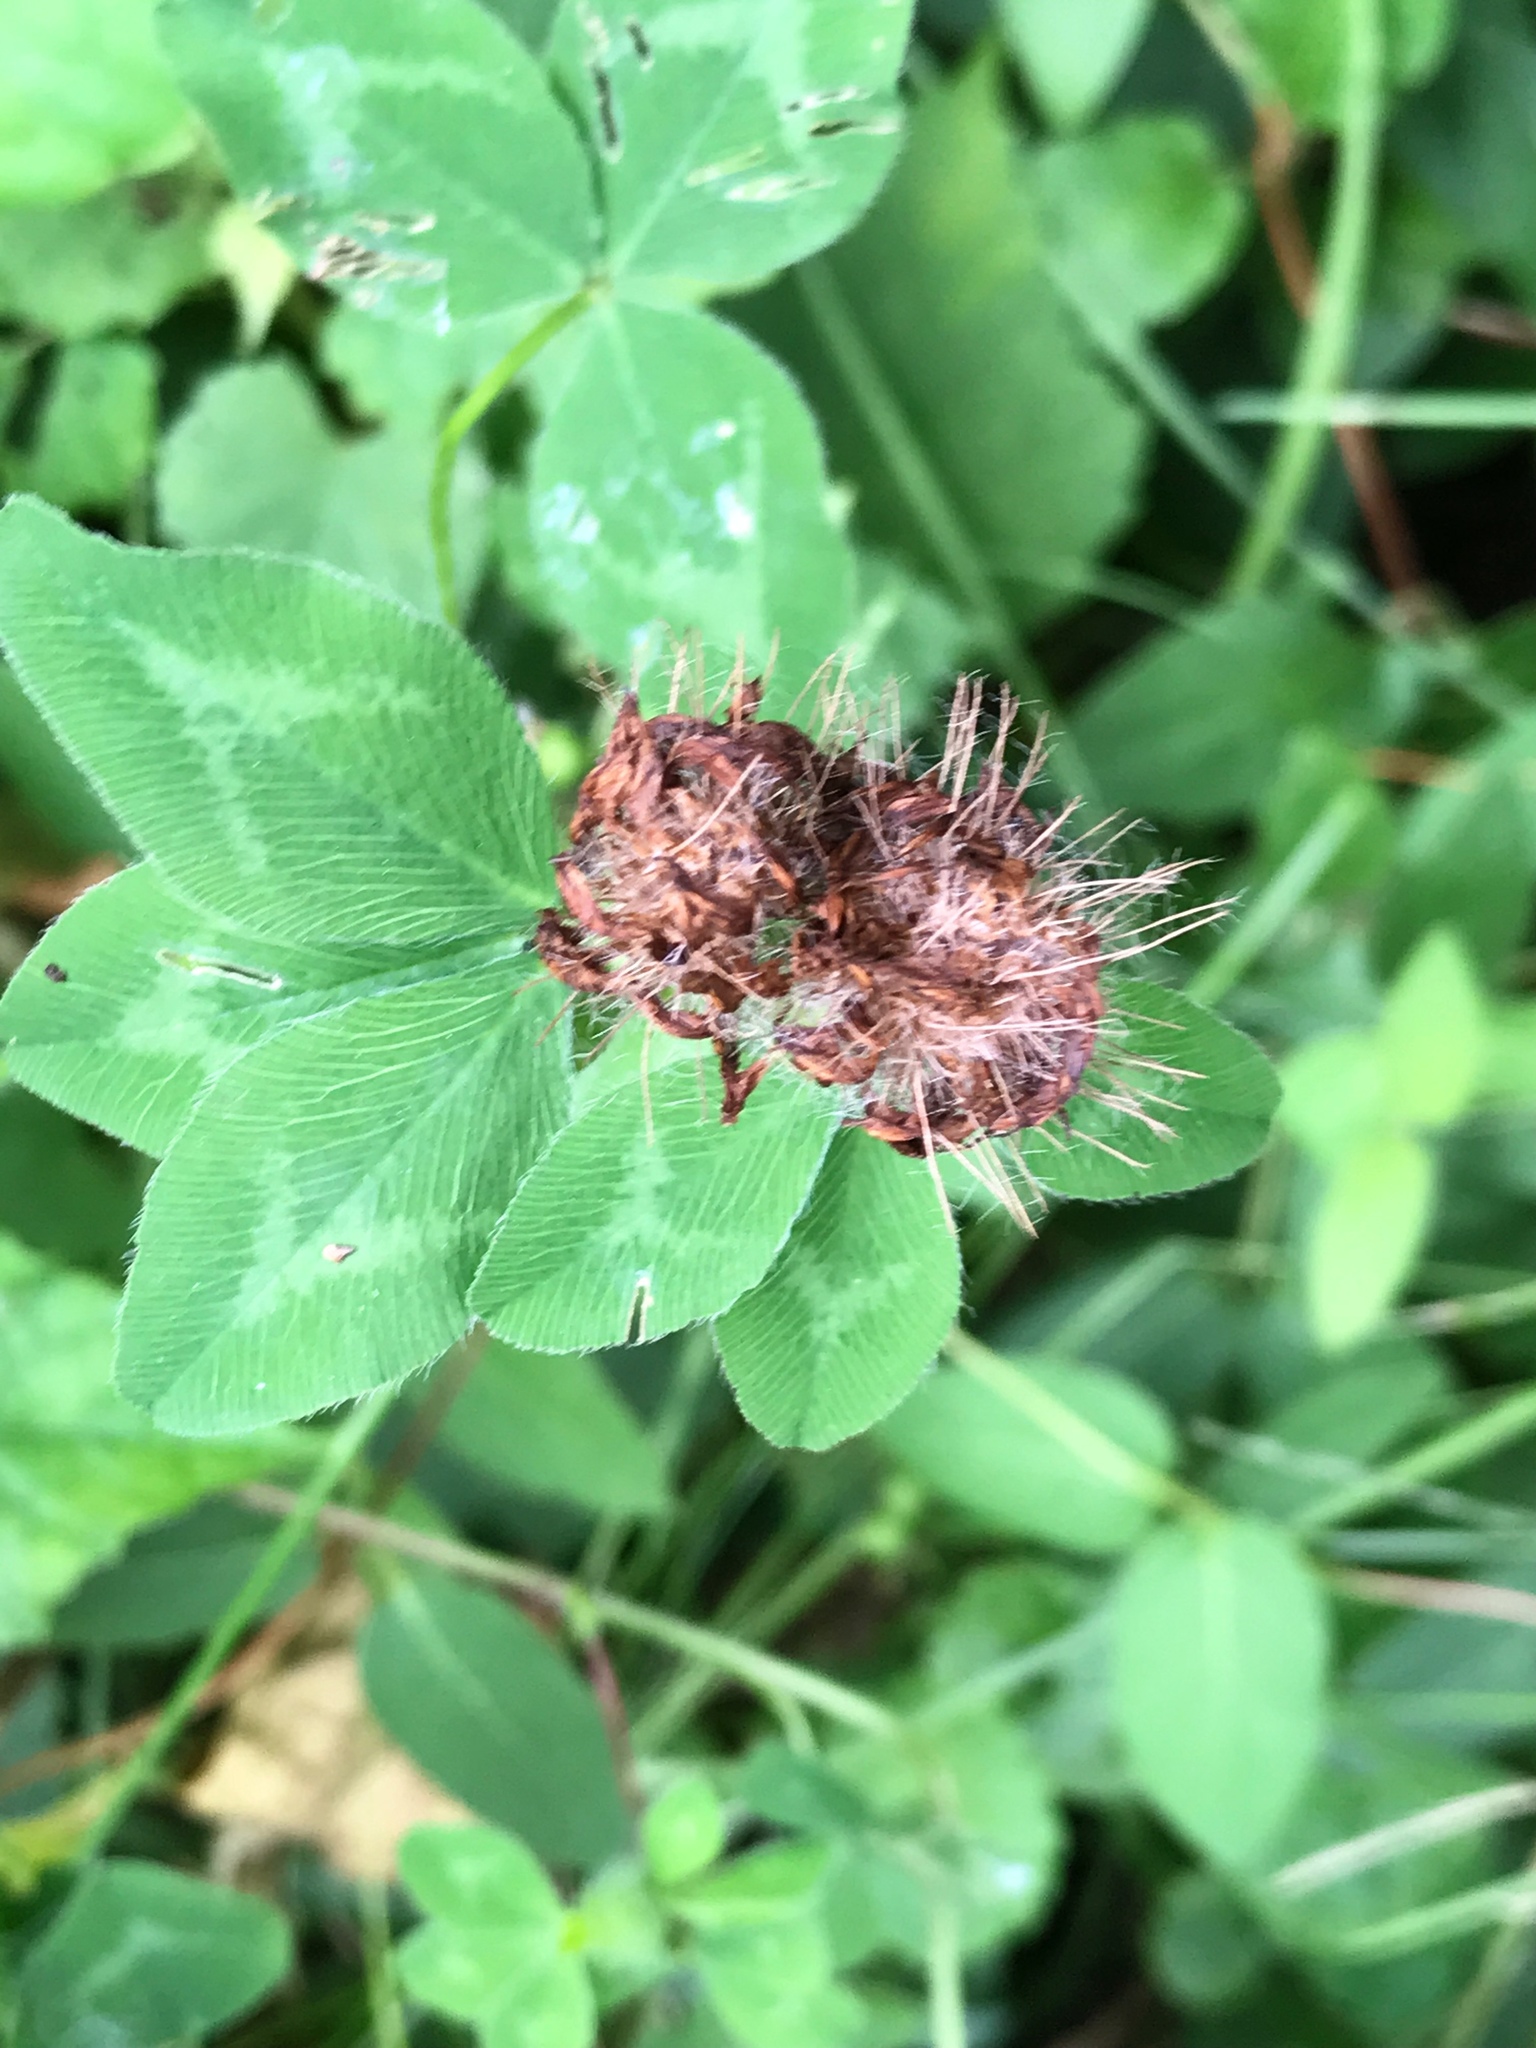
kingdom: Plantae
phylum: Tracheophyta
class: Magnoliopsida
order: Fabales
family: Fabaceae
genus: Trifolium
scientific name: Trifolium pratense
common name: Red clover
